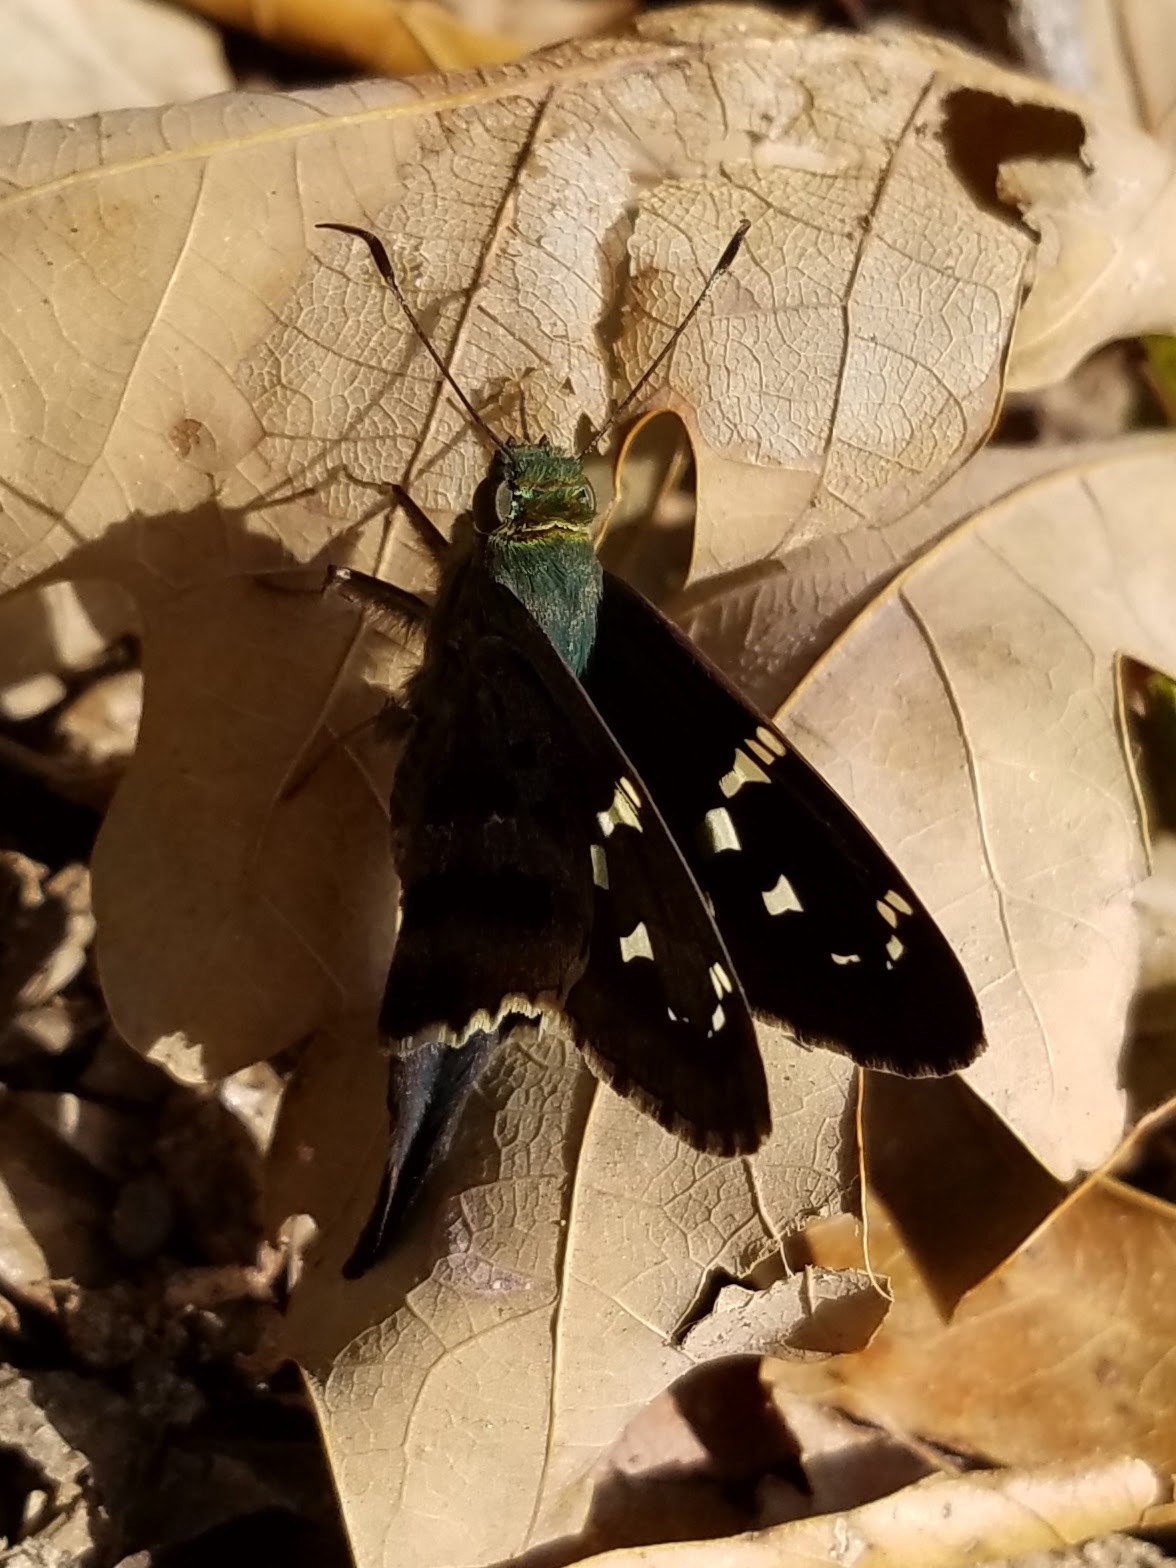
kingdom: Animalia
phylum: Arthropoda
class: Insecta
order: Lepidoptera
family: Hesperiidae
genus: Urbanus
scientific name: Urbanus proteus
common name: Long-tailed skipper
